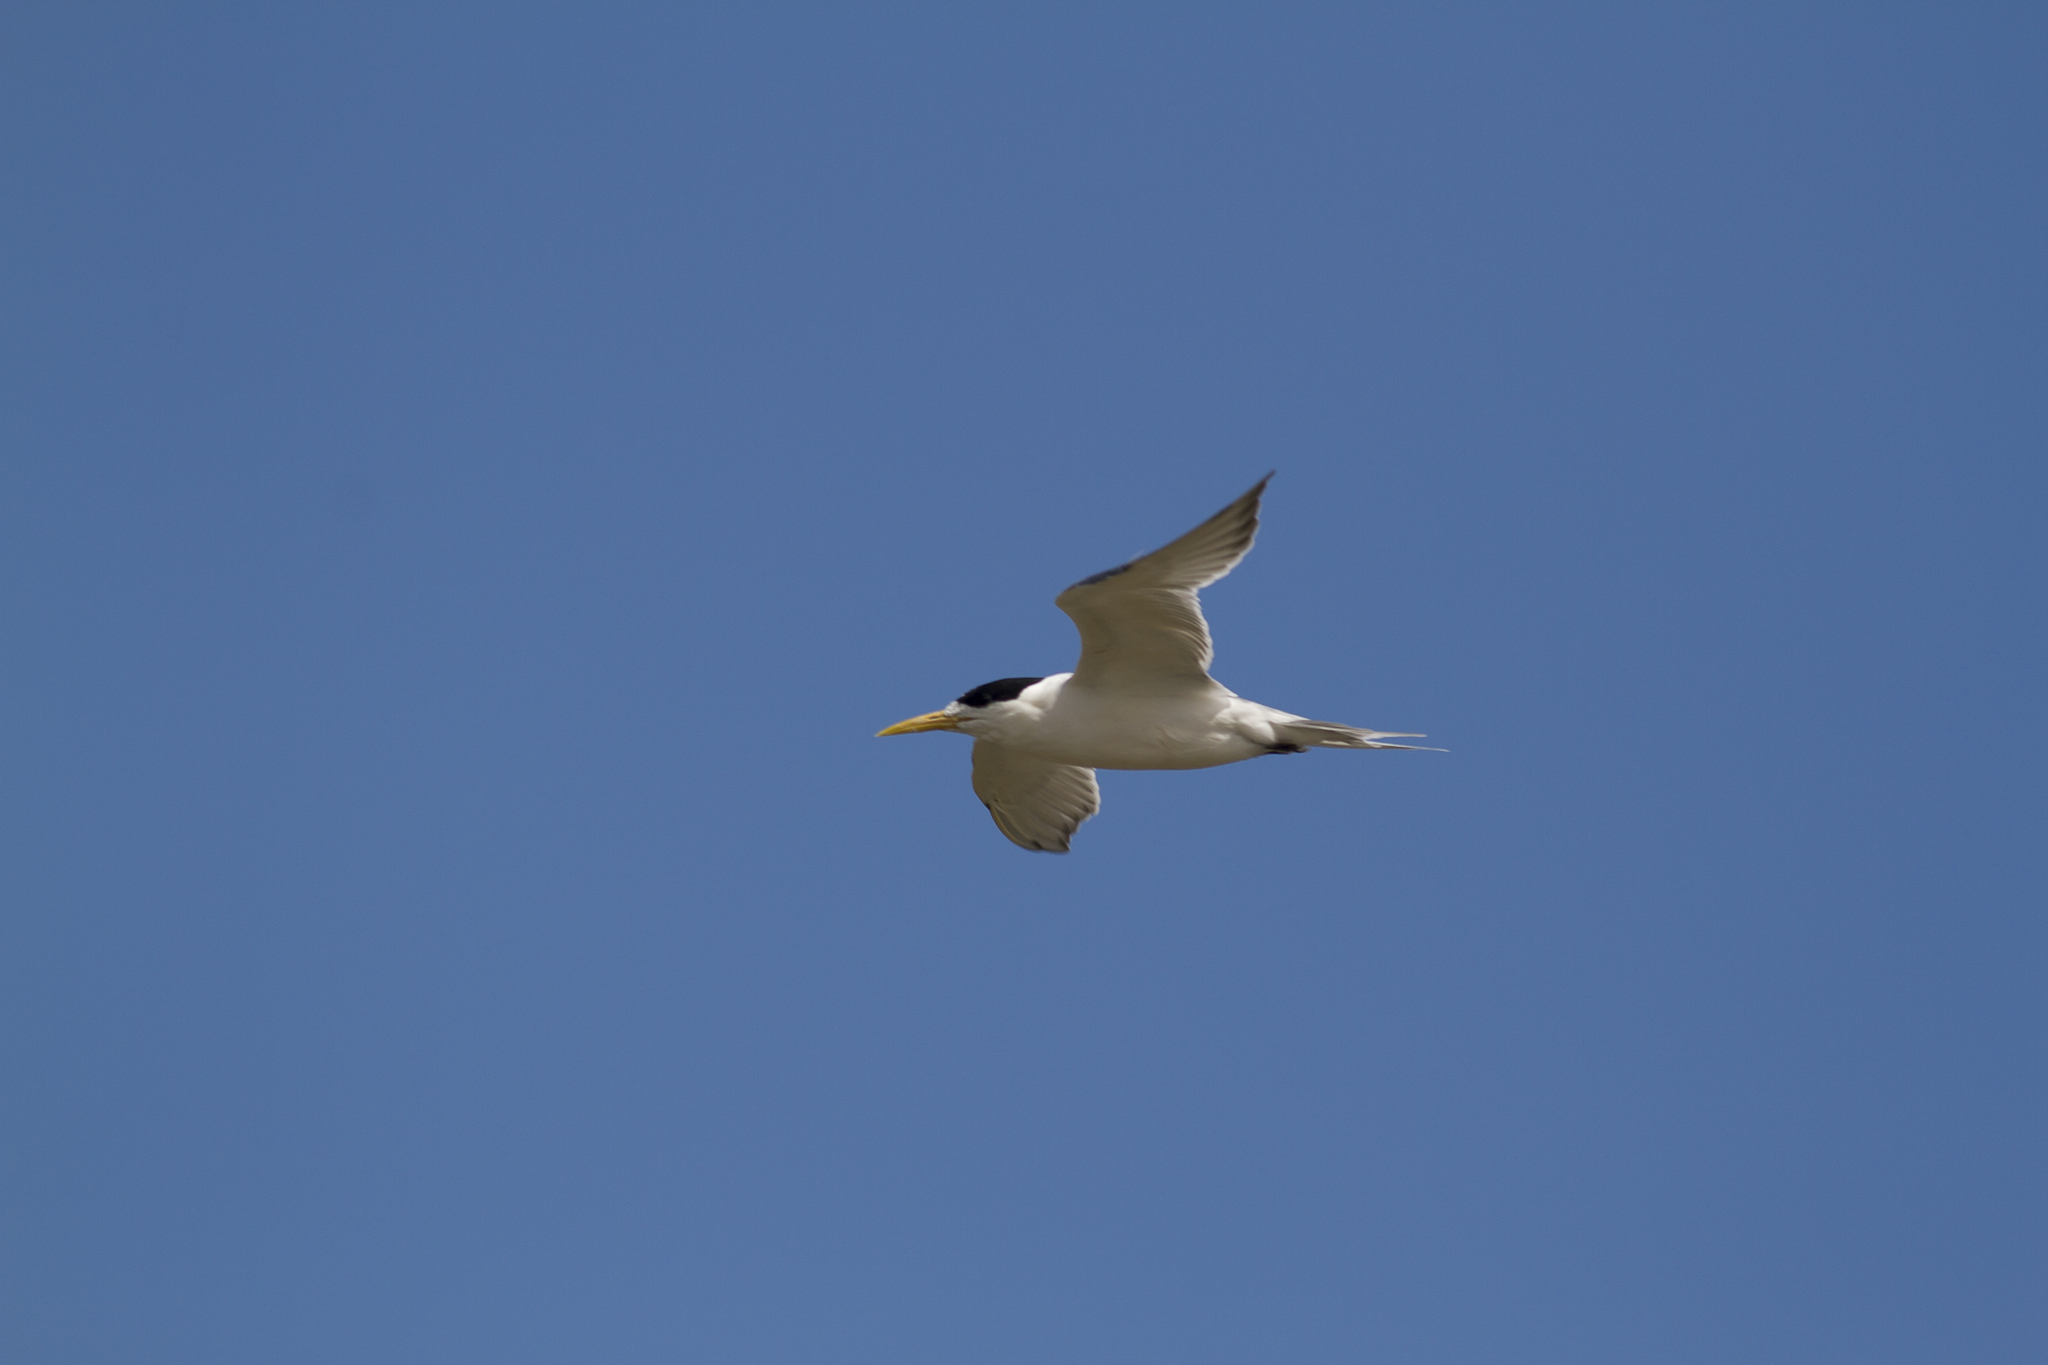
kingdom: Animalia
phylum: Chordata
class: Aves
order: Charadriiformes
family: Laridae
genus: Thalasseus
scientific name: Thalasseus bergii
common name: Greater crested tern
